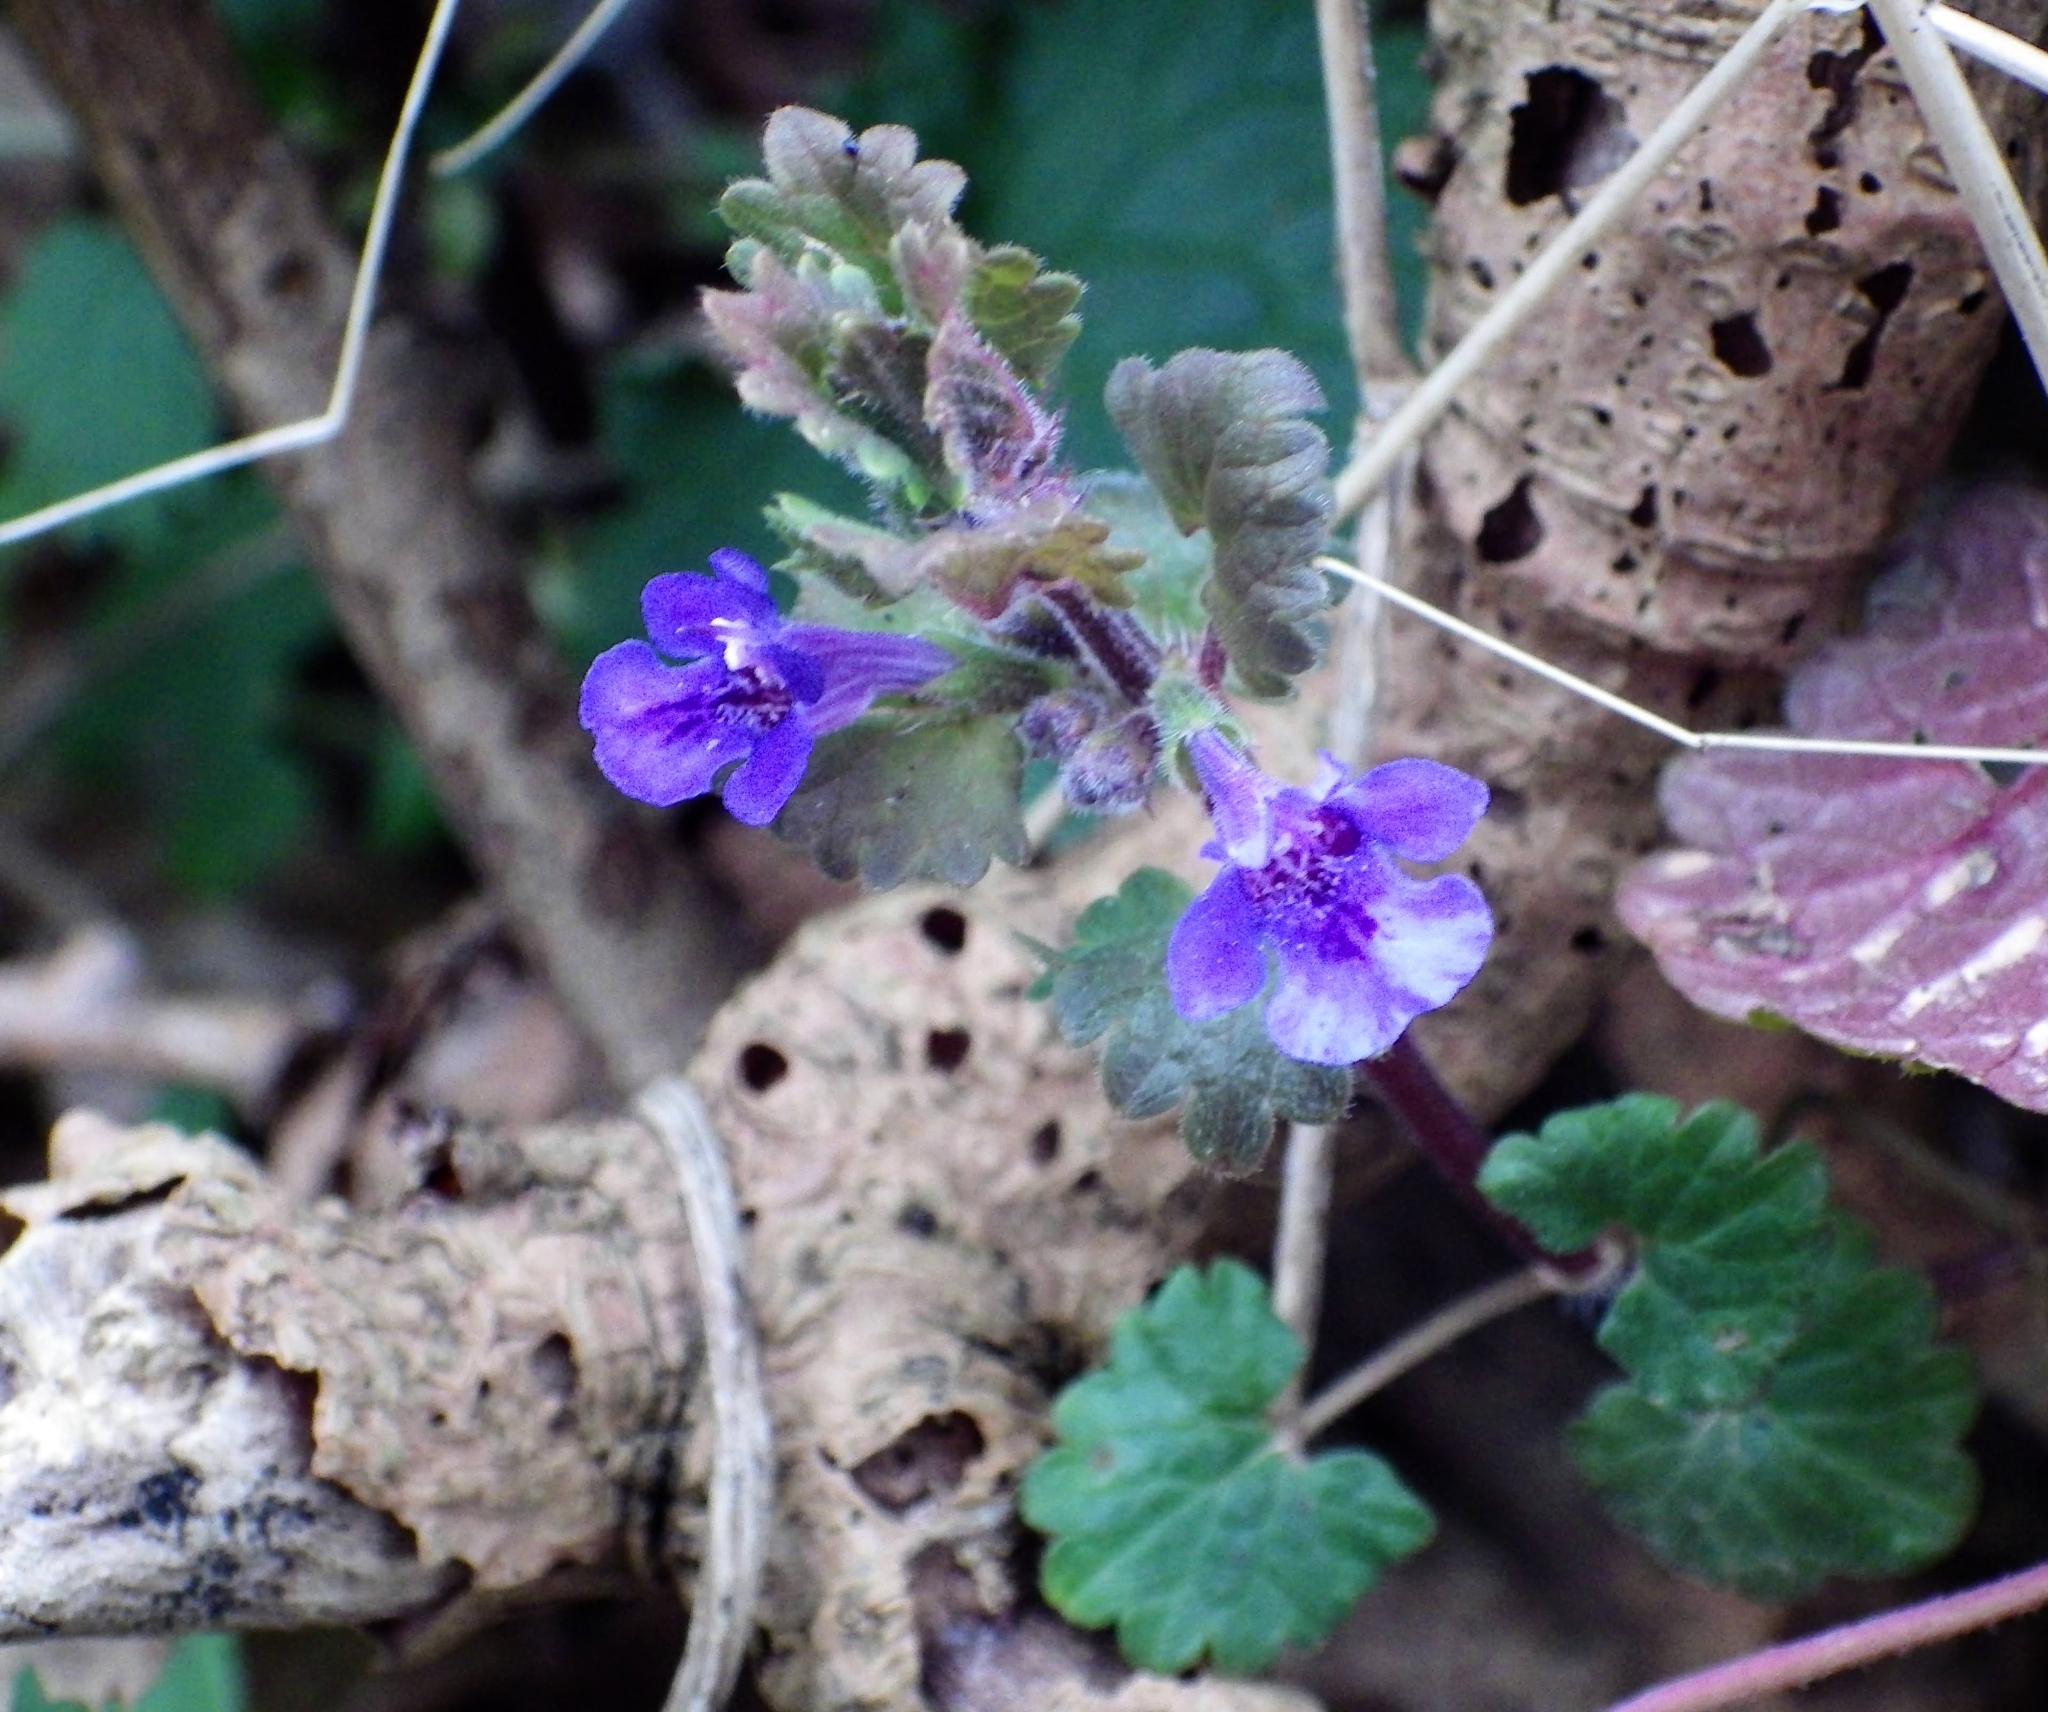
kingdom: Plantae
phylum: Tracheophyta
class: Magnoliopsida
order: Lamiales
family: Lamiaceae
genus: Glechoma
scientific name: Glechoma hederacea
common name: Ground ivy
